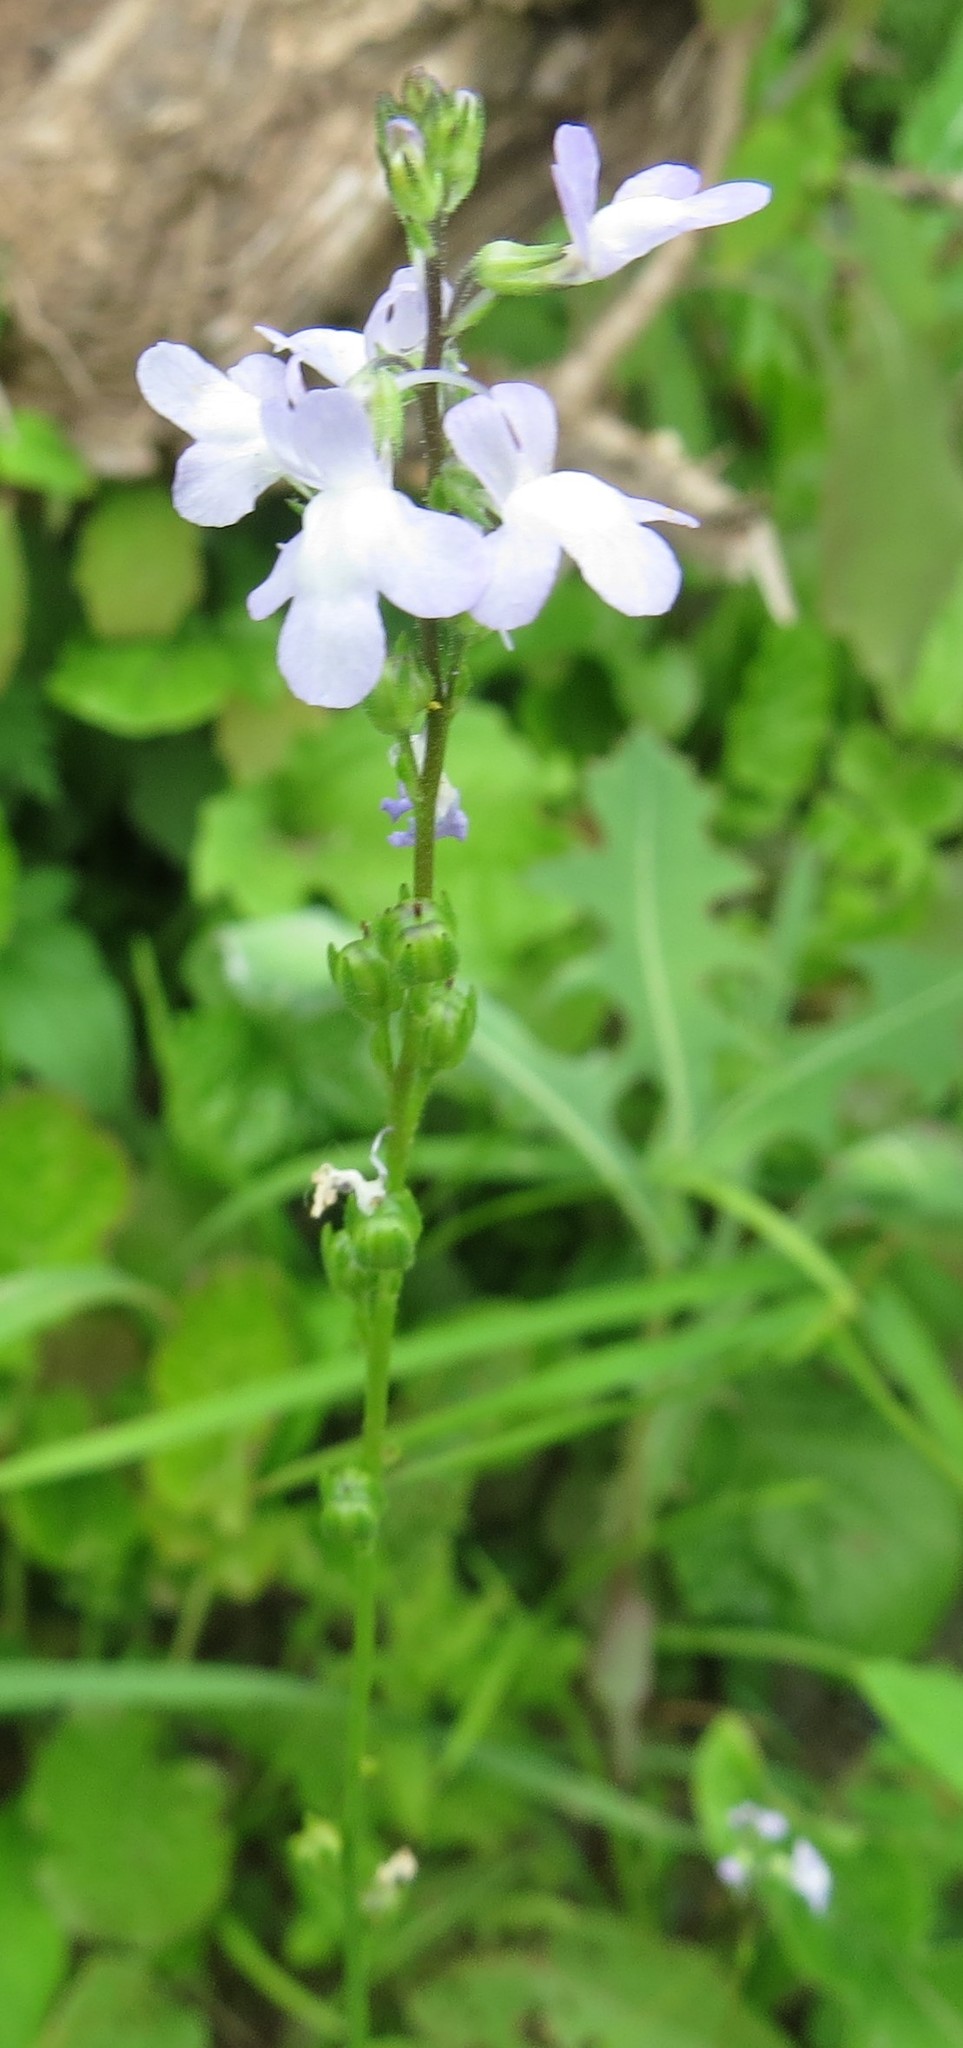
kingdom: Plantae
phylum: Tracheophyta
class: Magnoliopsida
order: Lamiales
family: Plantaginaceae
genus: Nuttallanthus
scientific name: Nuttallanthus canadensis
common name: Blue toadflax
